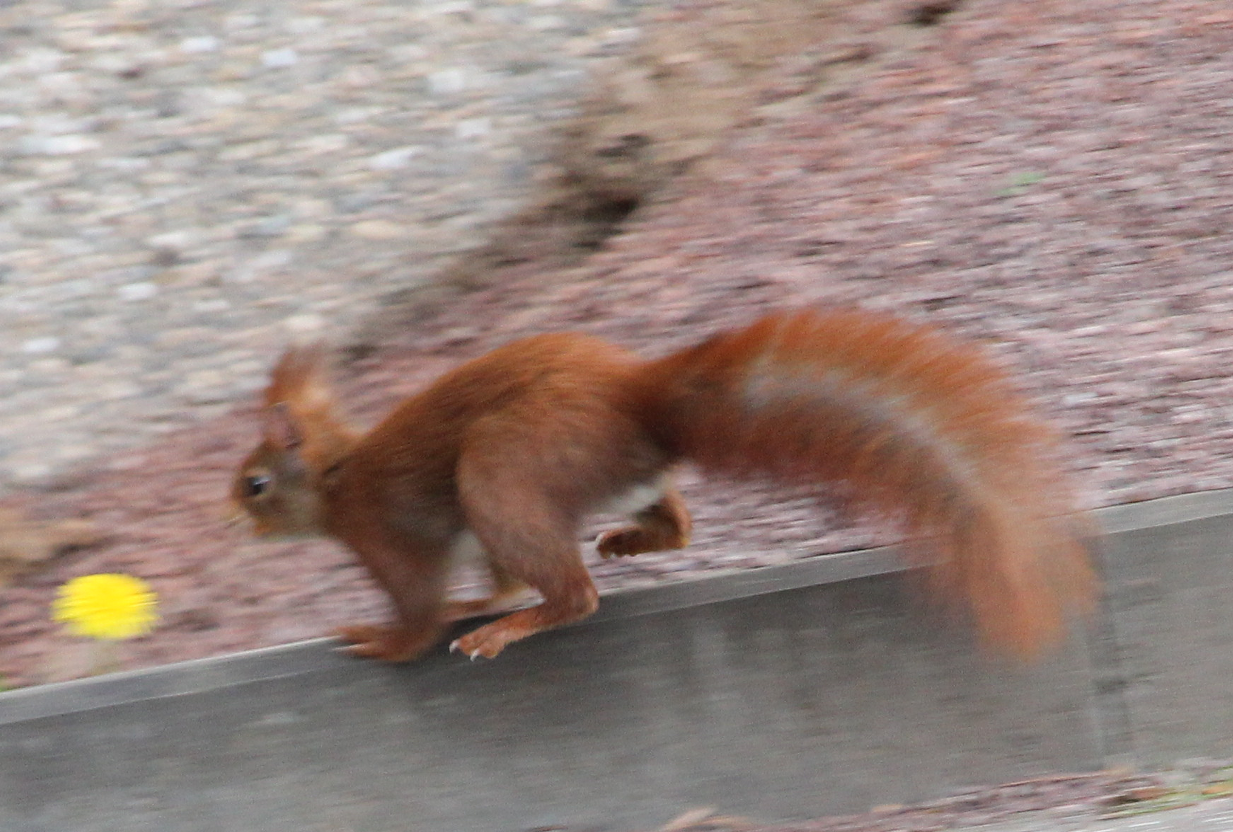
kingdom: Animalia
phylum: Chordata
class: Mammalia
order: Rodentia
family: Sciuridae
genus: Sciurus
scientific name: Sciurus vulgaris
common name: Eurasian red squirrel
